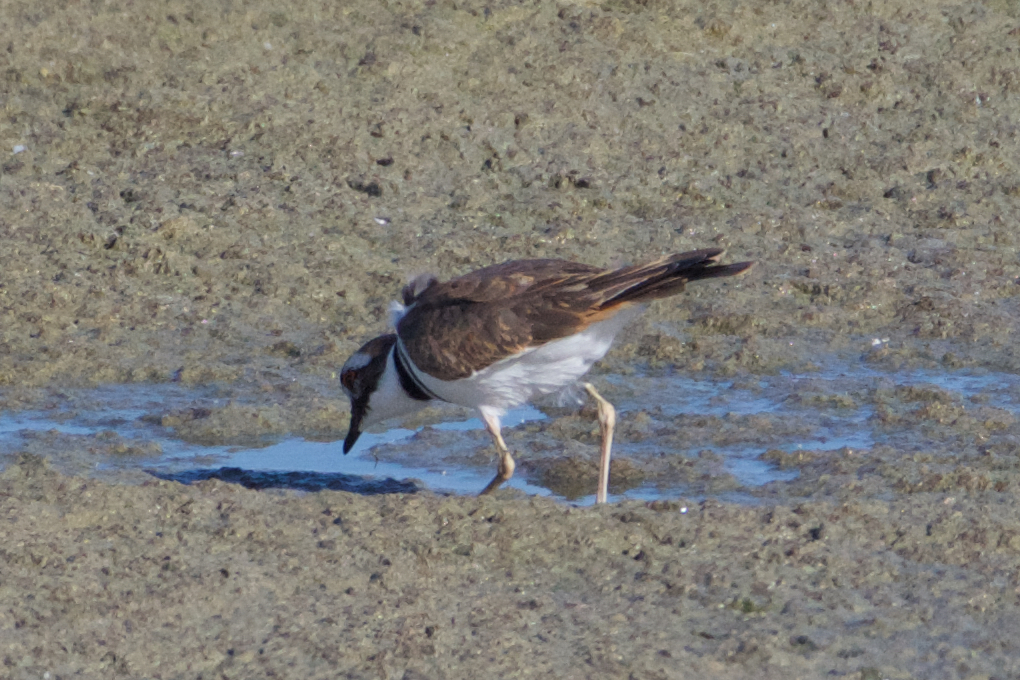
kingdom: Animalia
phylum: Chordata
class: Aves
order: Charadriiformes
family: Charadriidae
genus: Charadrius
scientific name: Charadrius vociferus
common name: Killdeer
